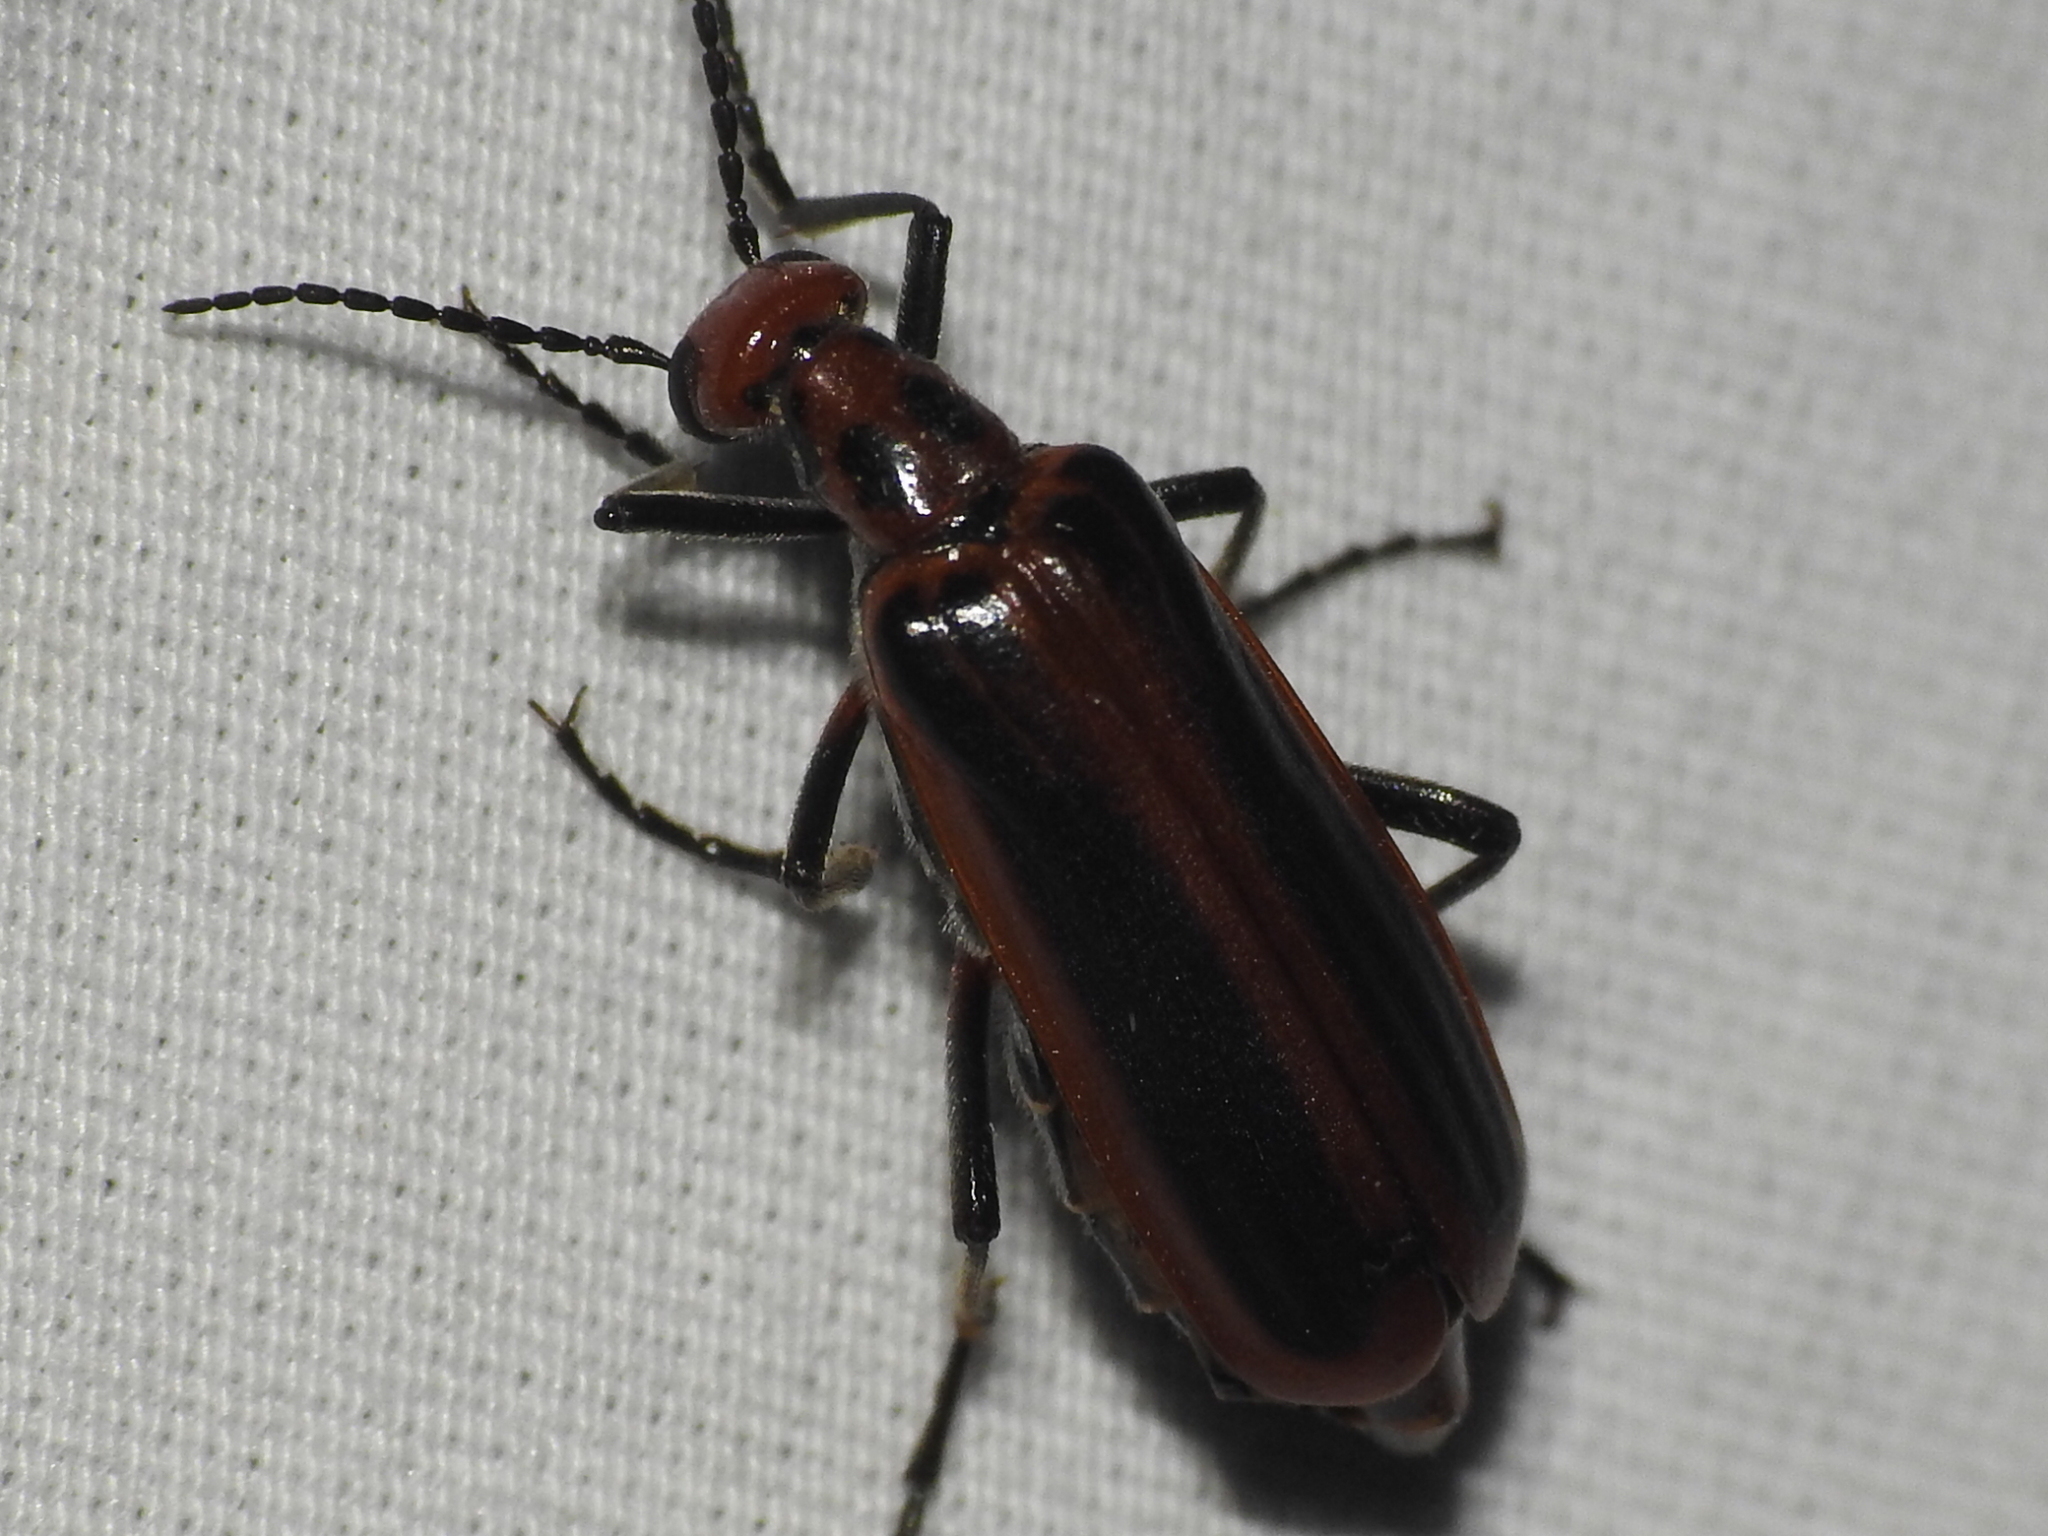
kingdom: Animalia
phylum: Arthropoda
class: Insecta
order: Coleoptera
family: Meloidae
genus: Pyrota
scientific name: Pyrota tenuicostatis
